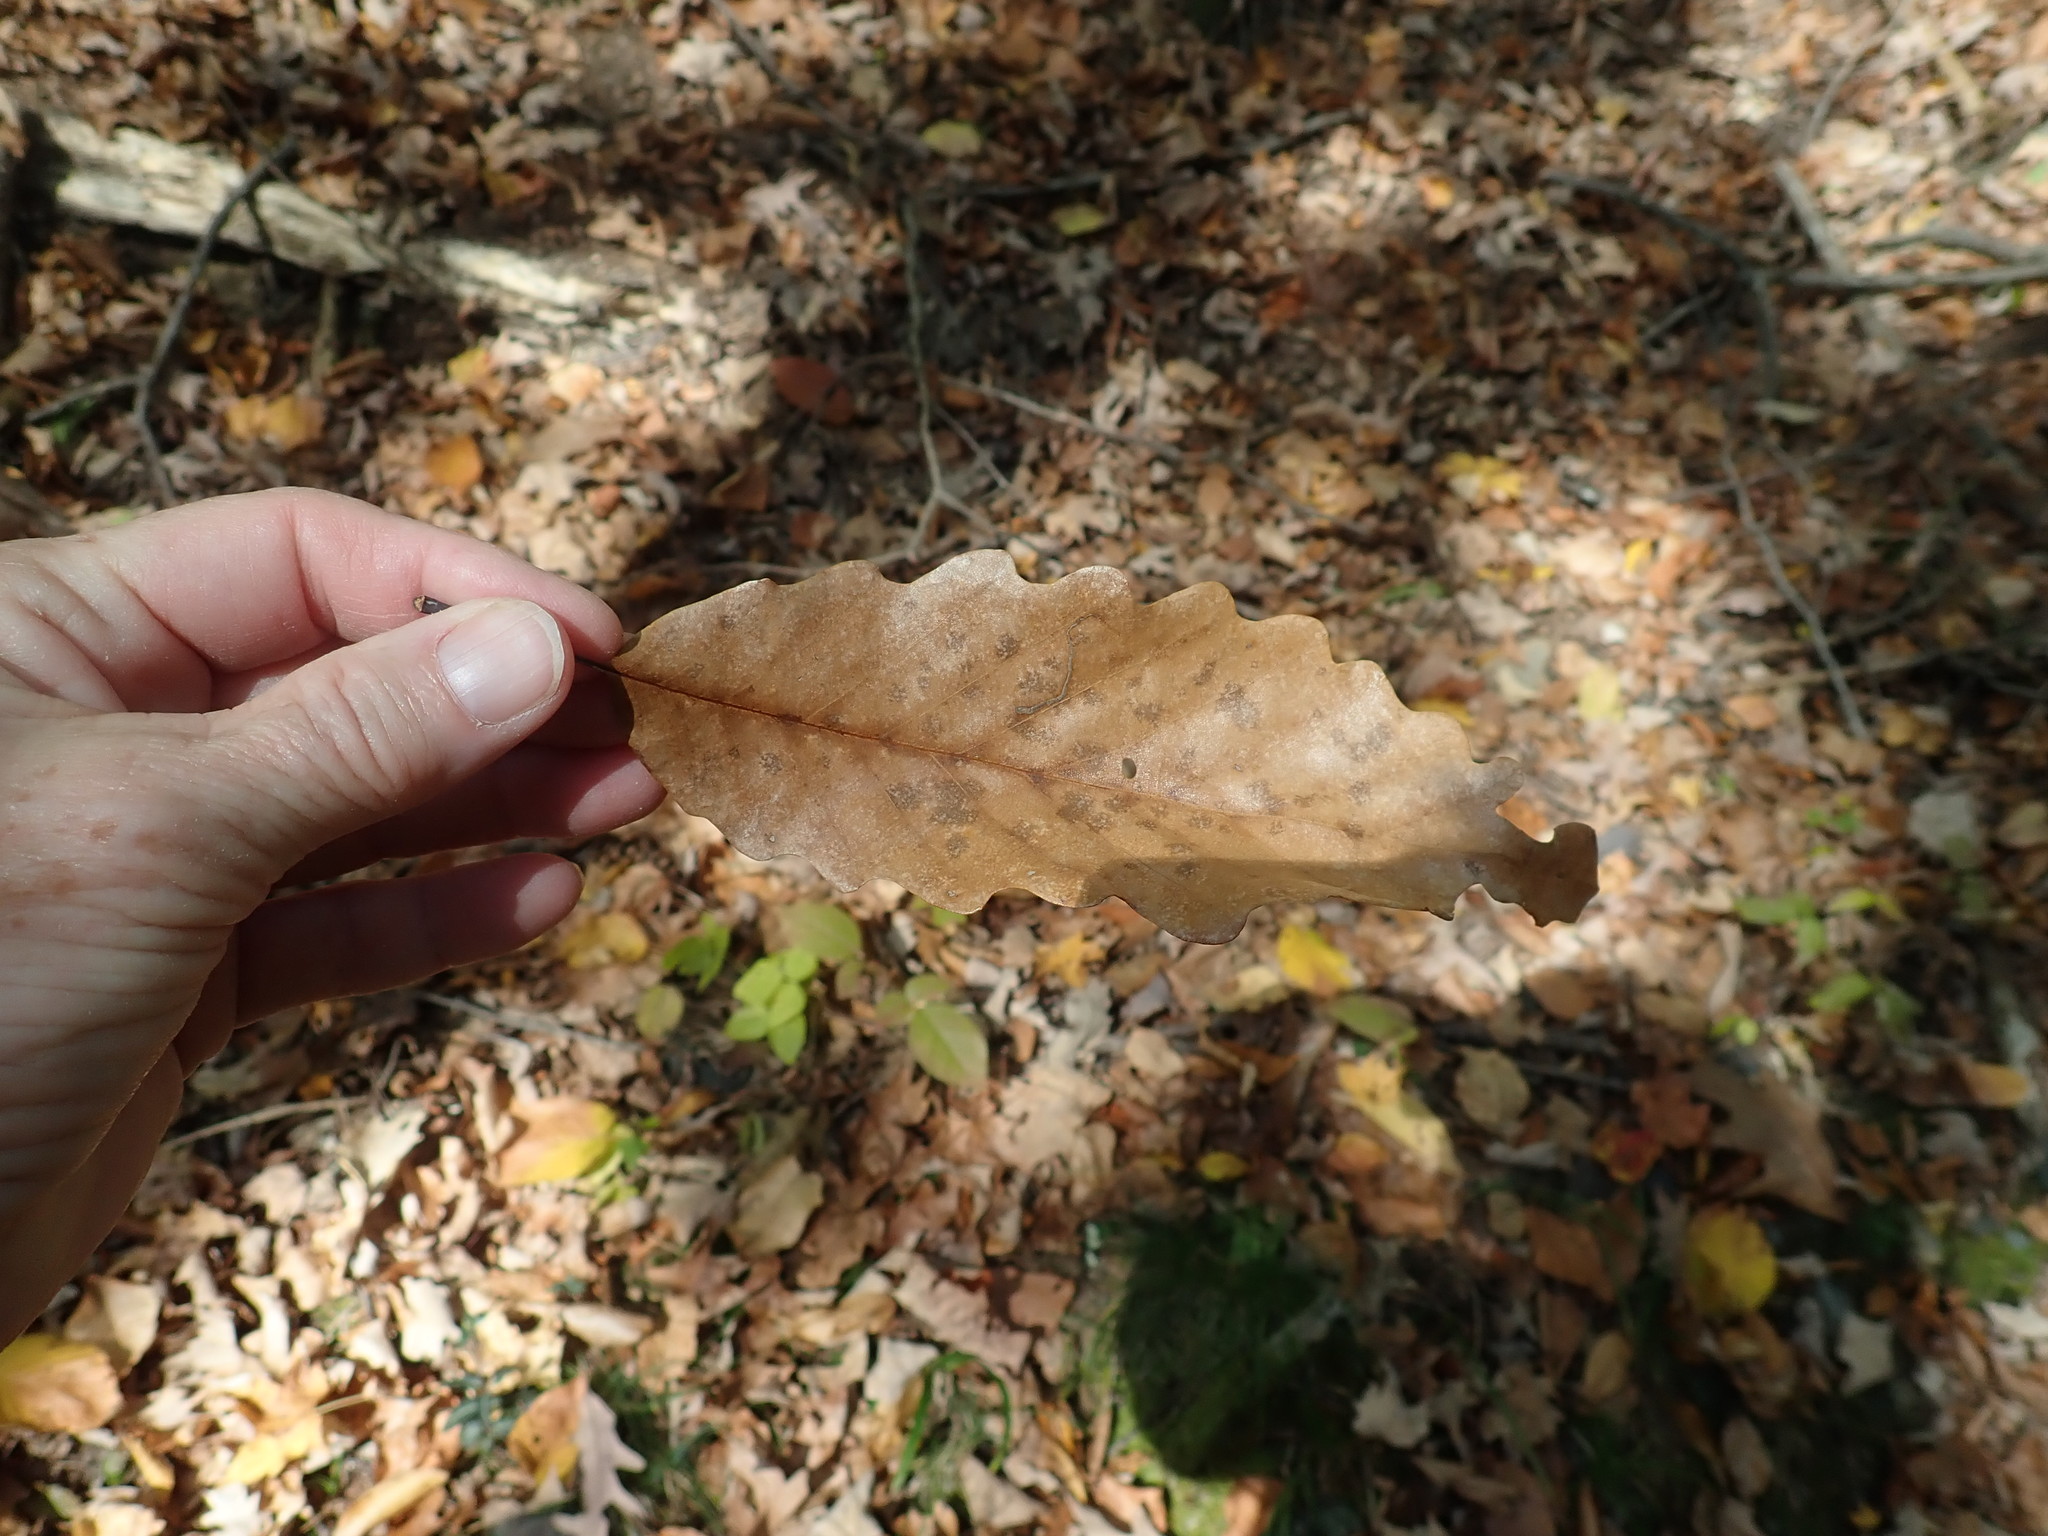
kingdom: Plantae
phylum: Tracheophyta
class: Magnoliopsida
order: Fagales
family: Fagaceae
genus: Quercus
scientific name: Quercus montana
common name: Chestnut oak
